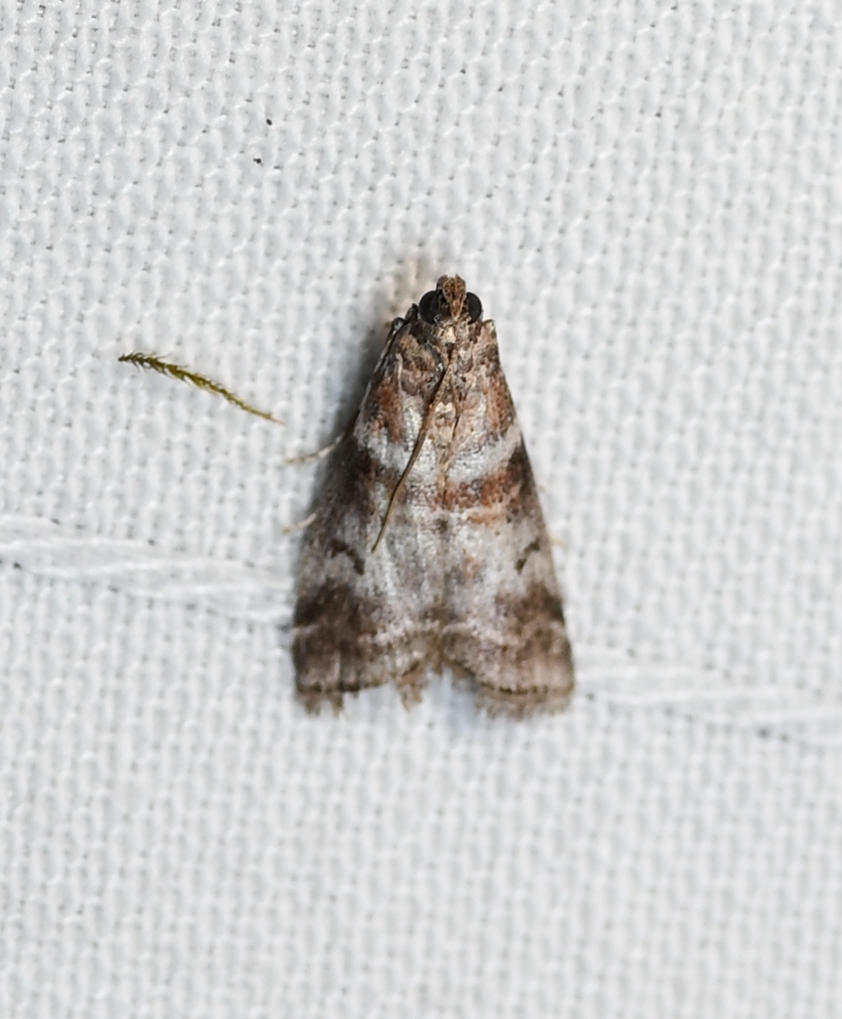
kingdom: Animalia
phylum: Arthropoda
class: Insecta
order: Lepidoptera
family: Pyralidae
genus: Sciota
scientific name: Sciota uvinella
